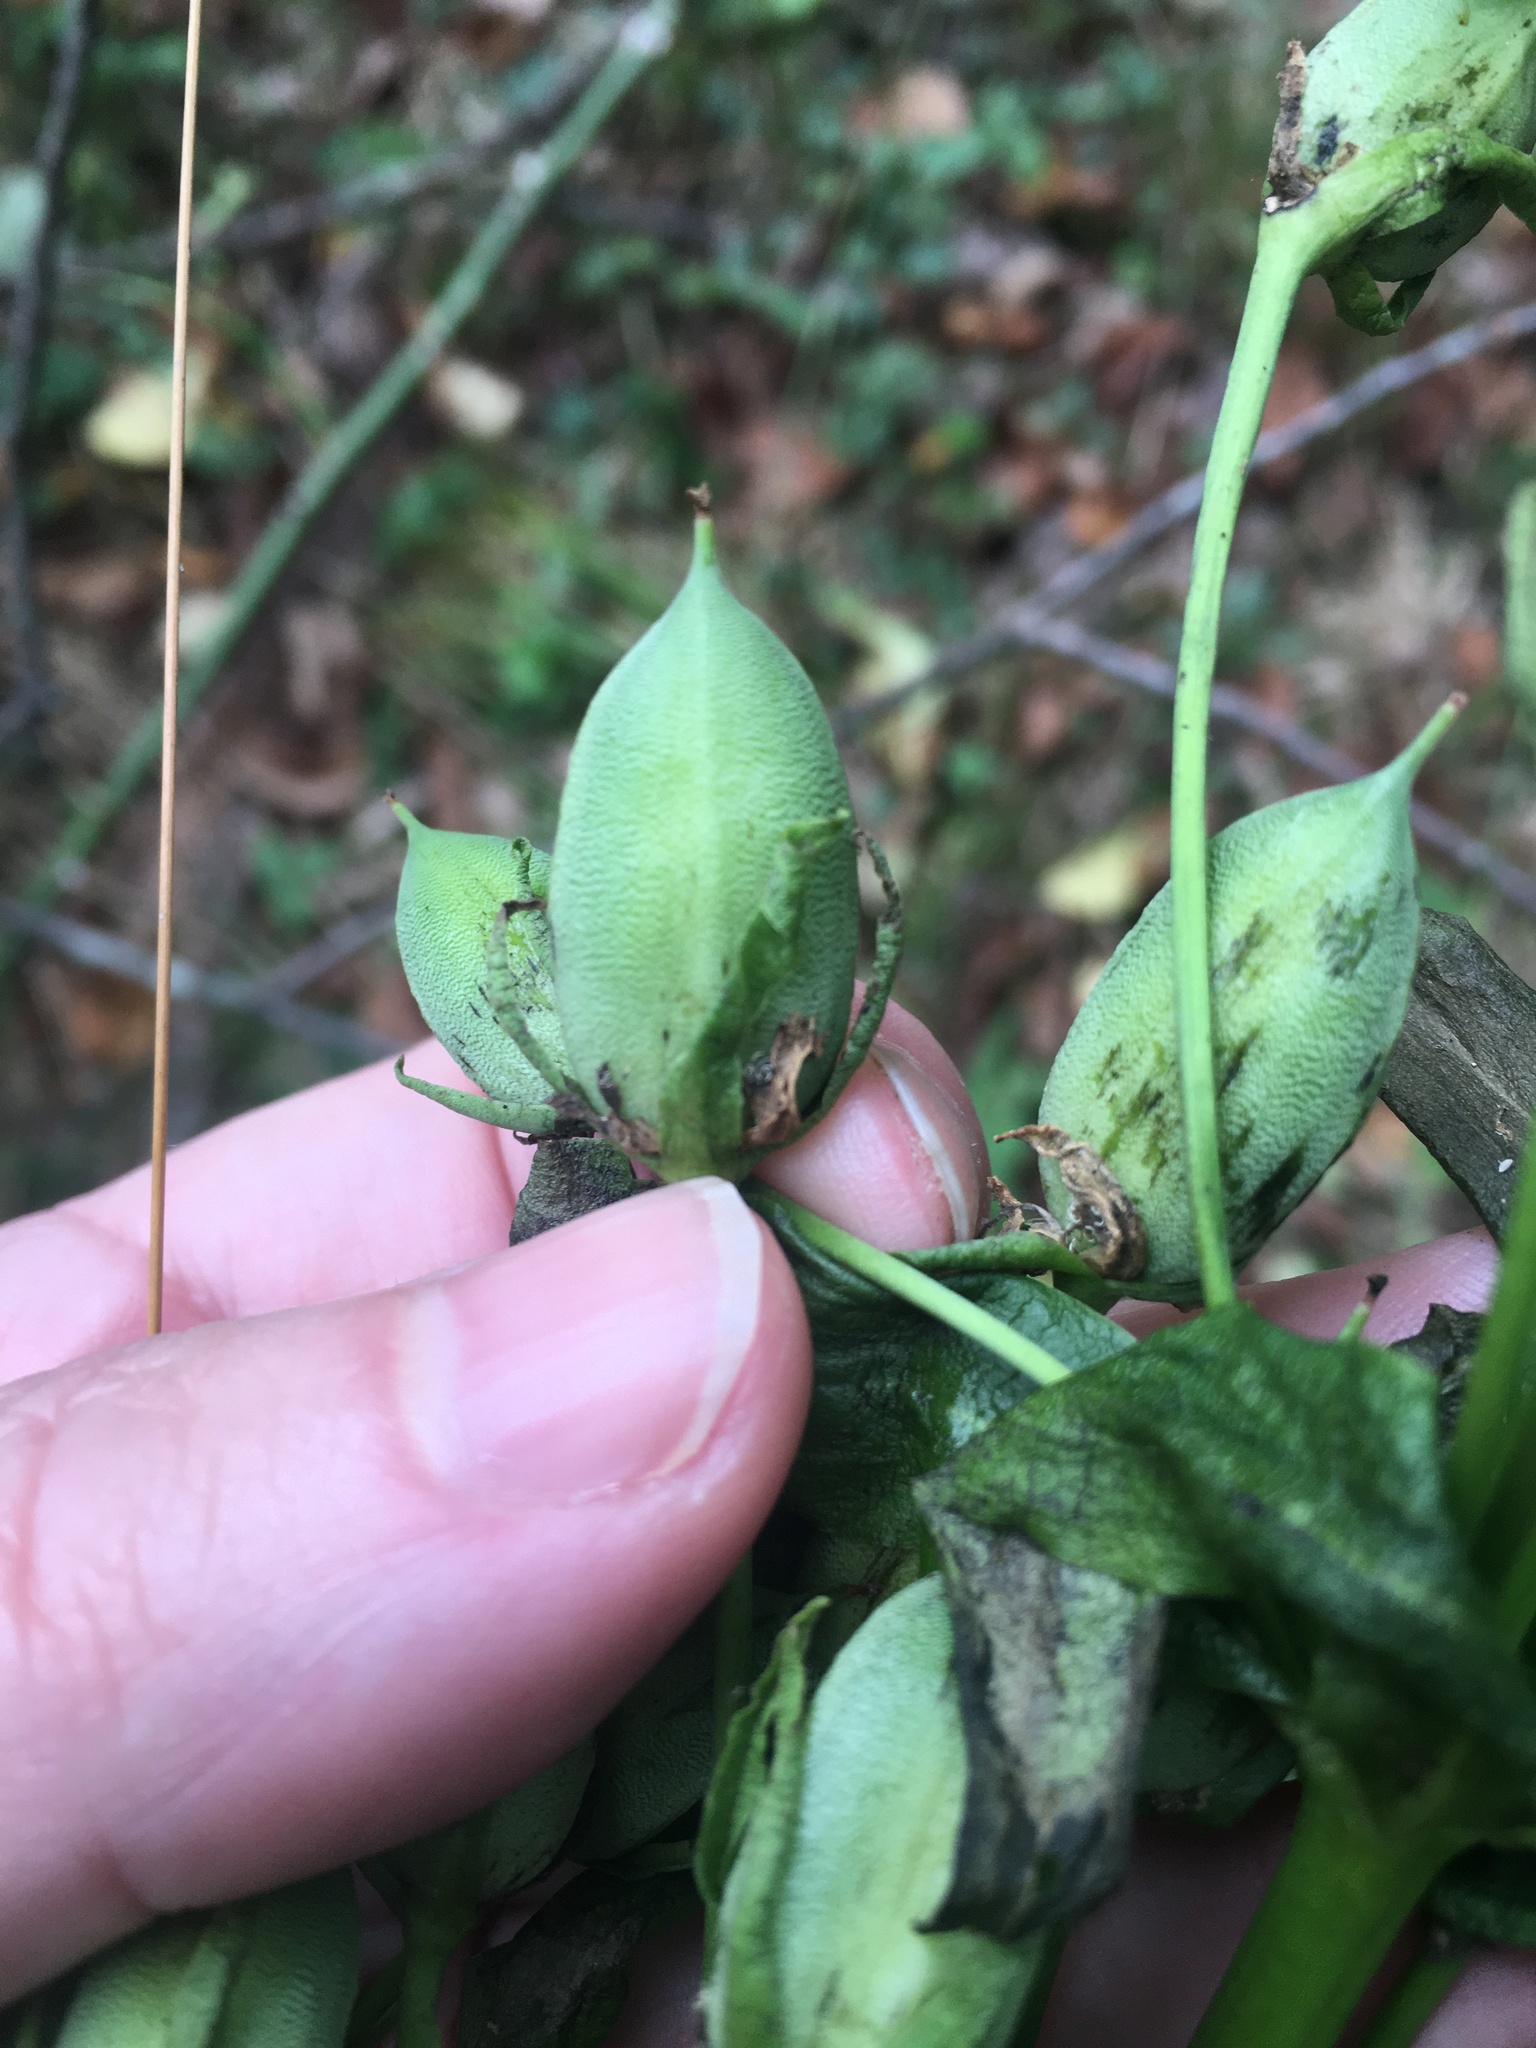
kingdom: Plantae
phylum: Tracheophyta
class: Magnoliopsida
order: Gentianales
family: Gentianaceae
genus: Frasera
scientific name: Frasera caroliniensis
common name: American columbo
